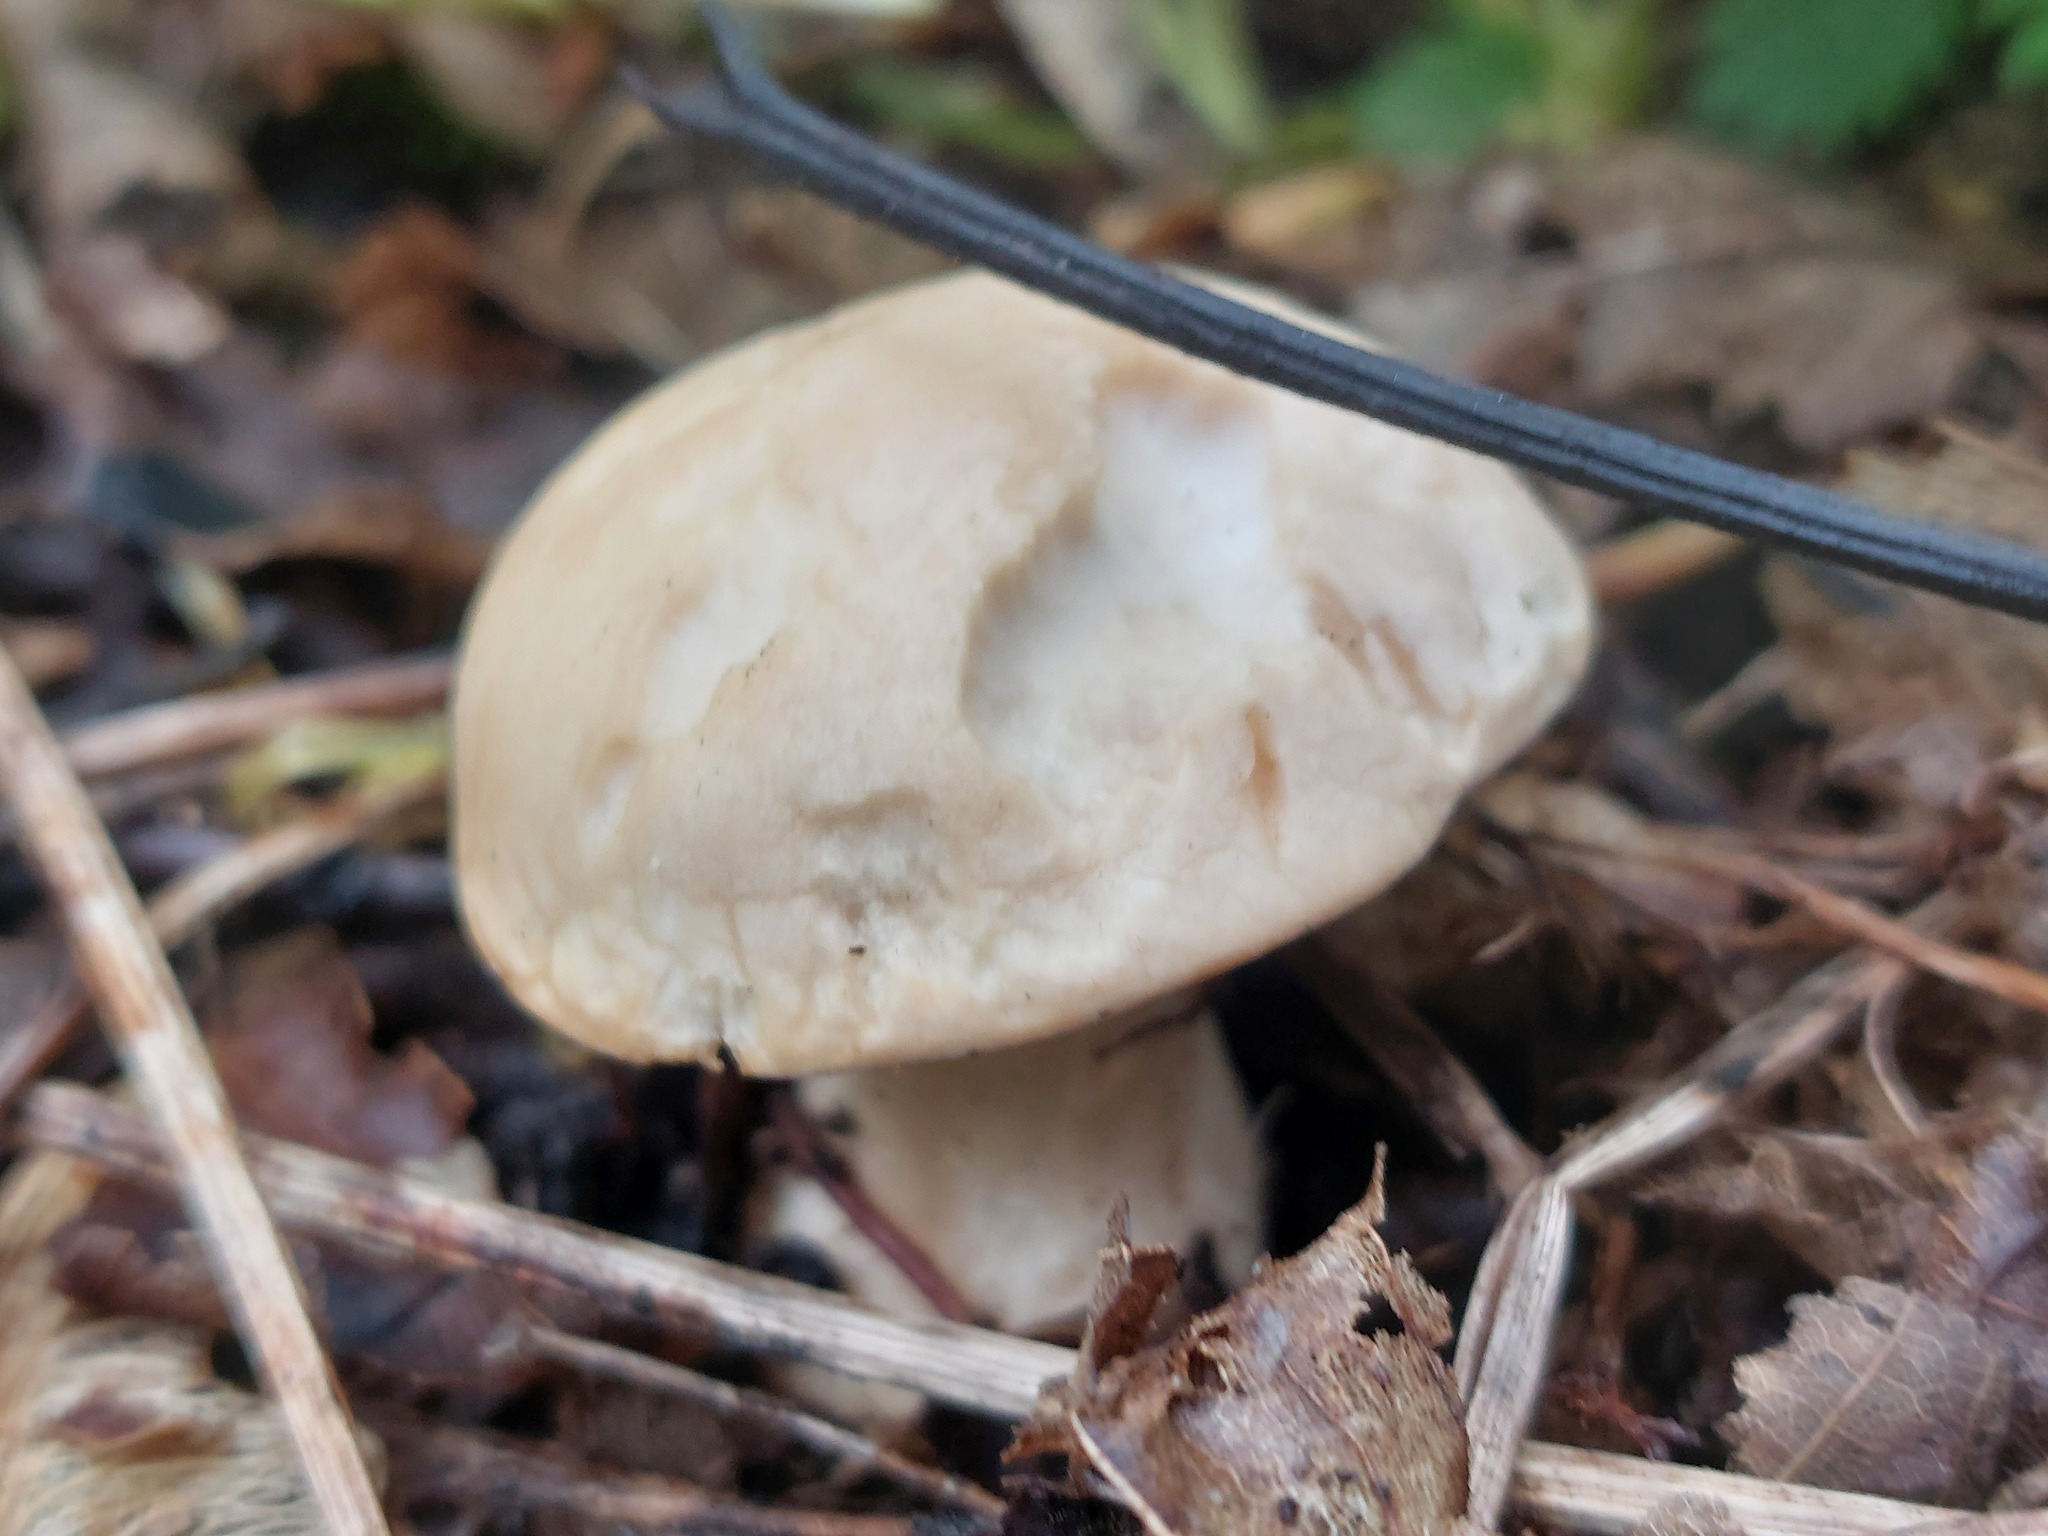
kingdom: Fungi
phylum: Basidiomycota
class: Agaricomycetes
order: Agaricales
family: Lyophyllaceae
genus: Calocybe
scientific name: Calocybe gambosa
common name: St. george's mushroom
